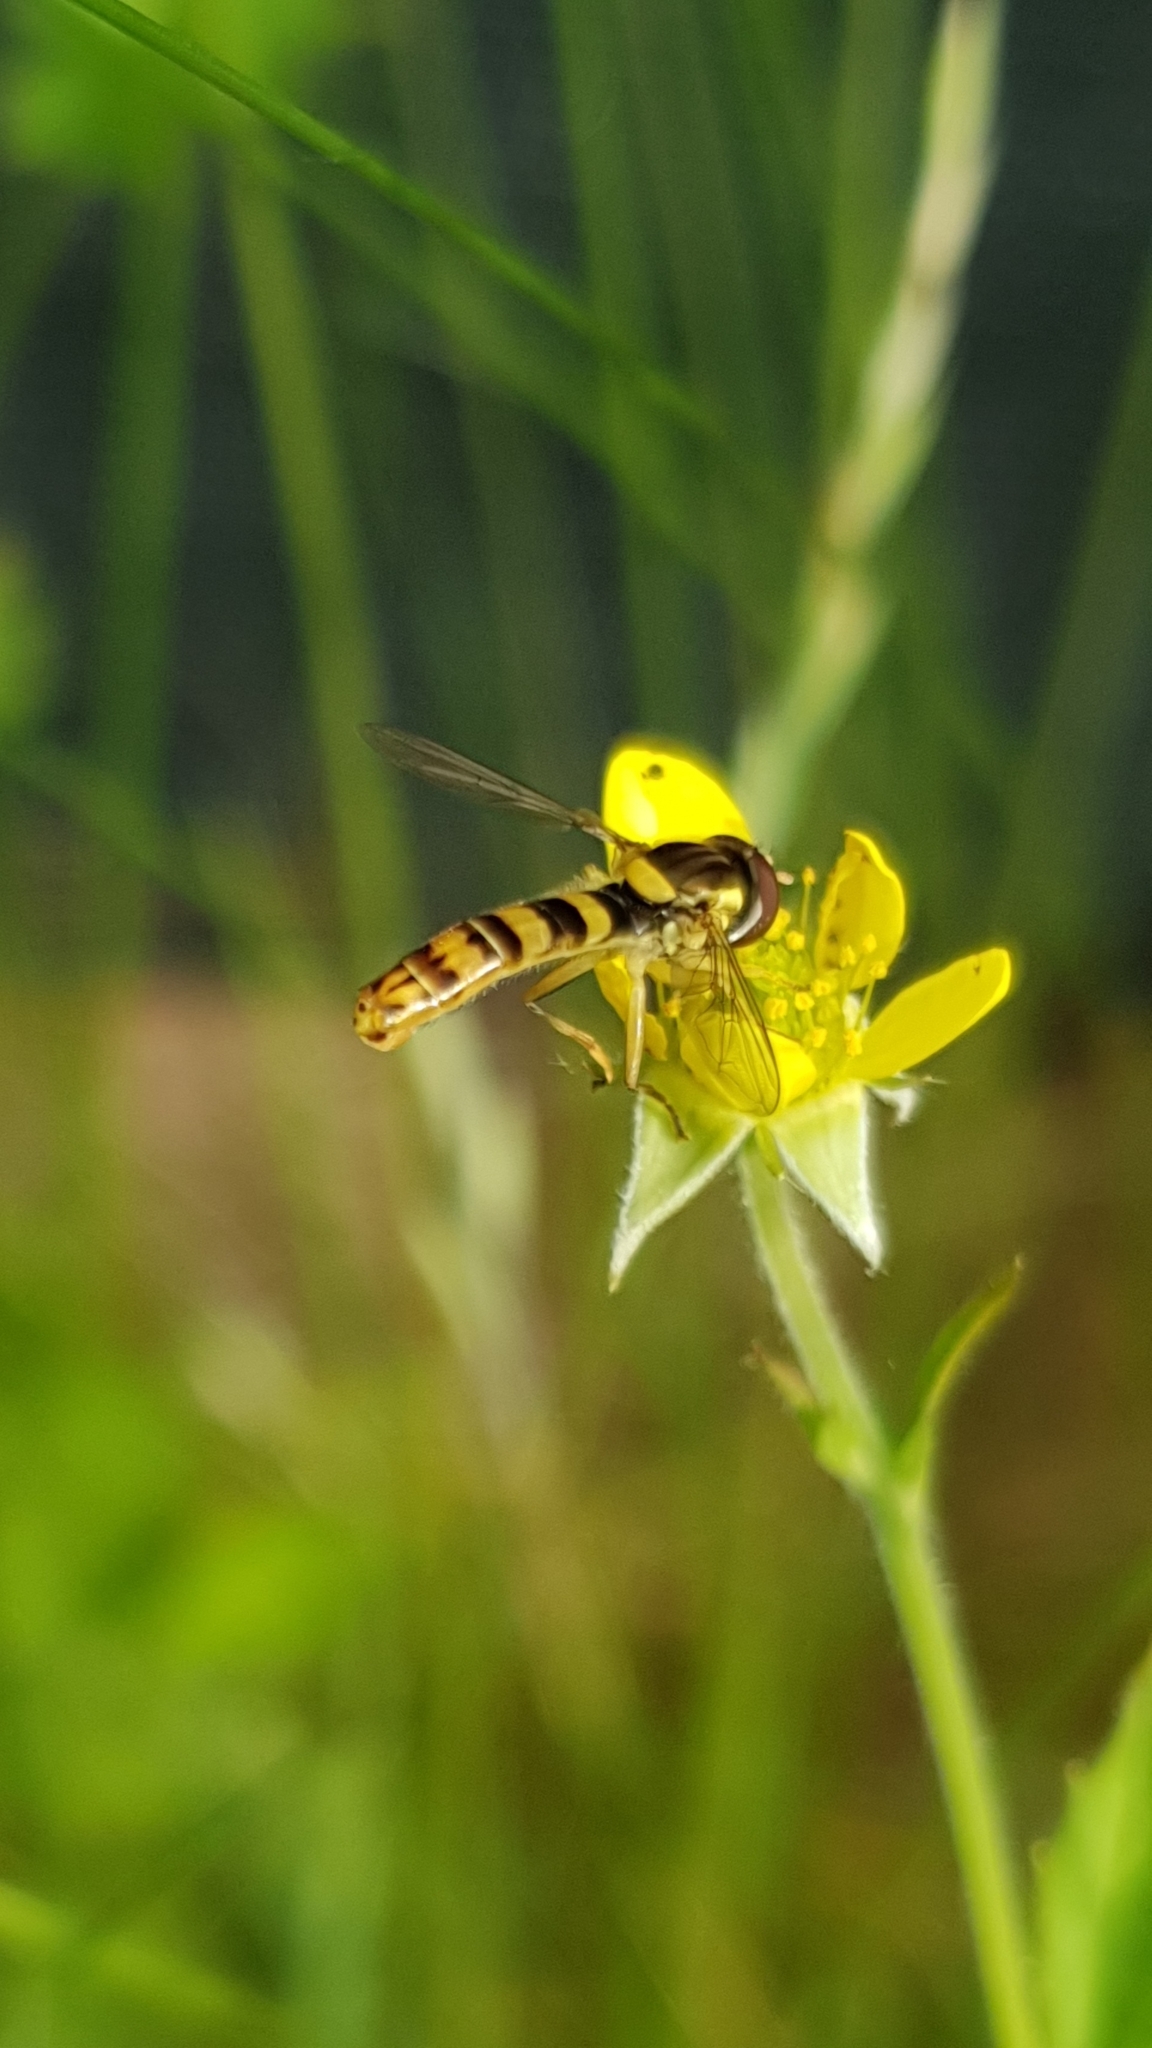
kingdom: Animalia
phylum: Arthropoda
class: Insecta
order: Diptera
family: Syrphidae
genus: Sphaerophoria
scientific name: Sphaerophoria scripta
